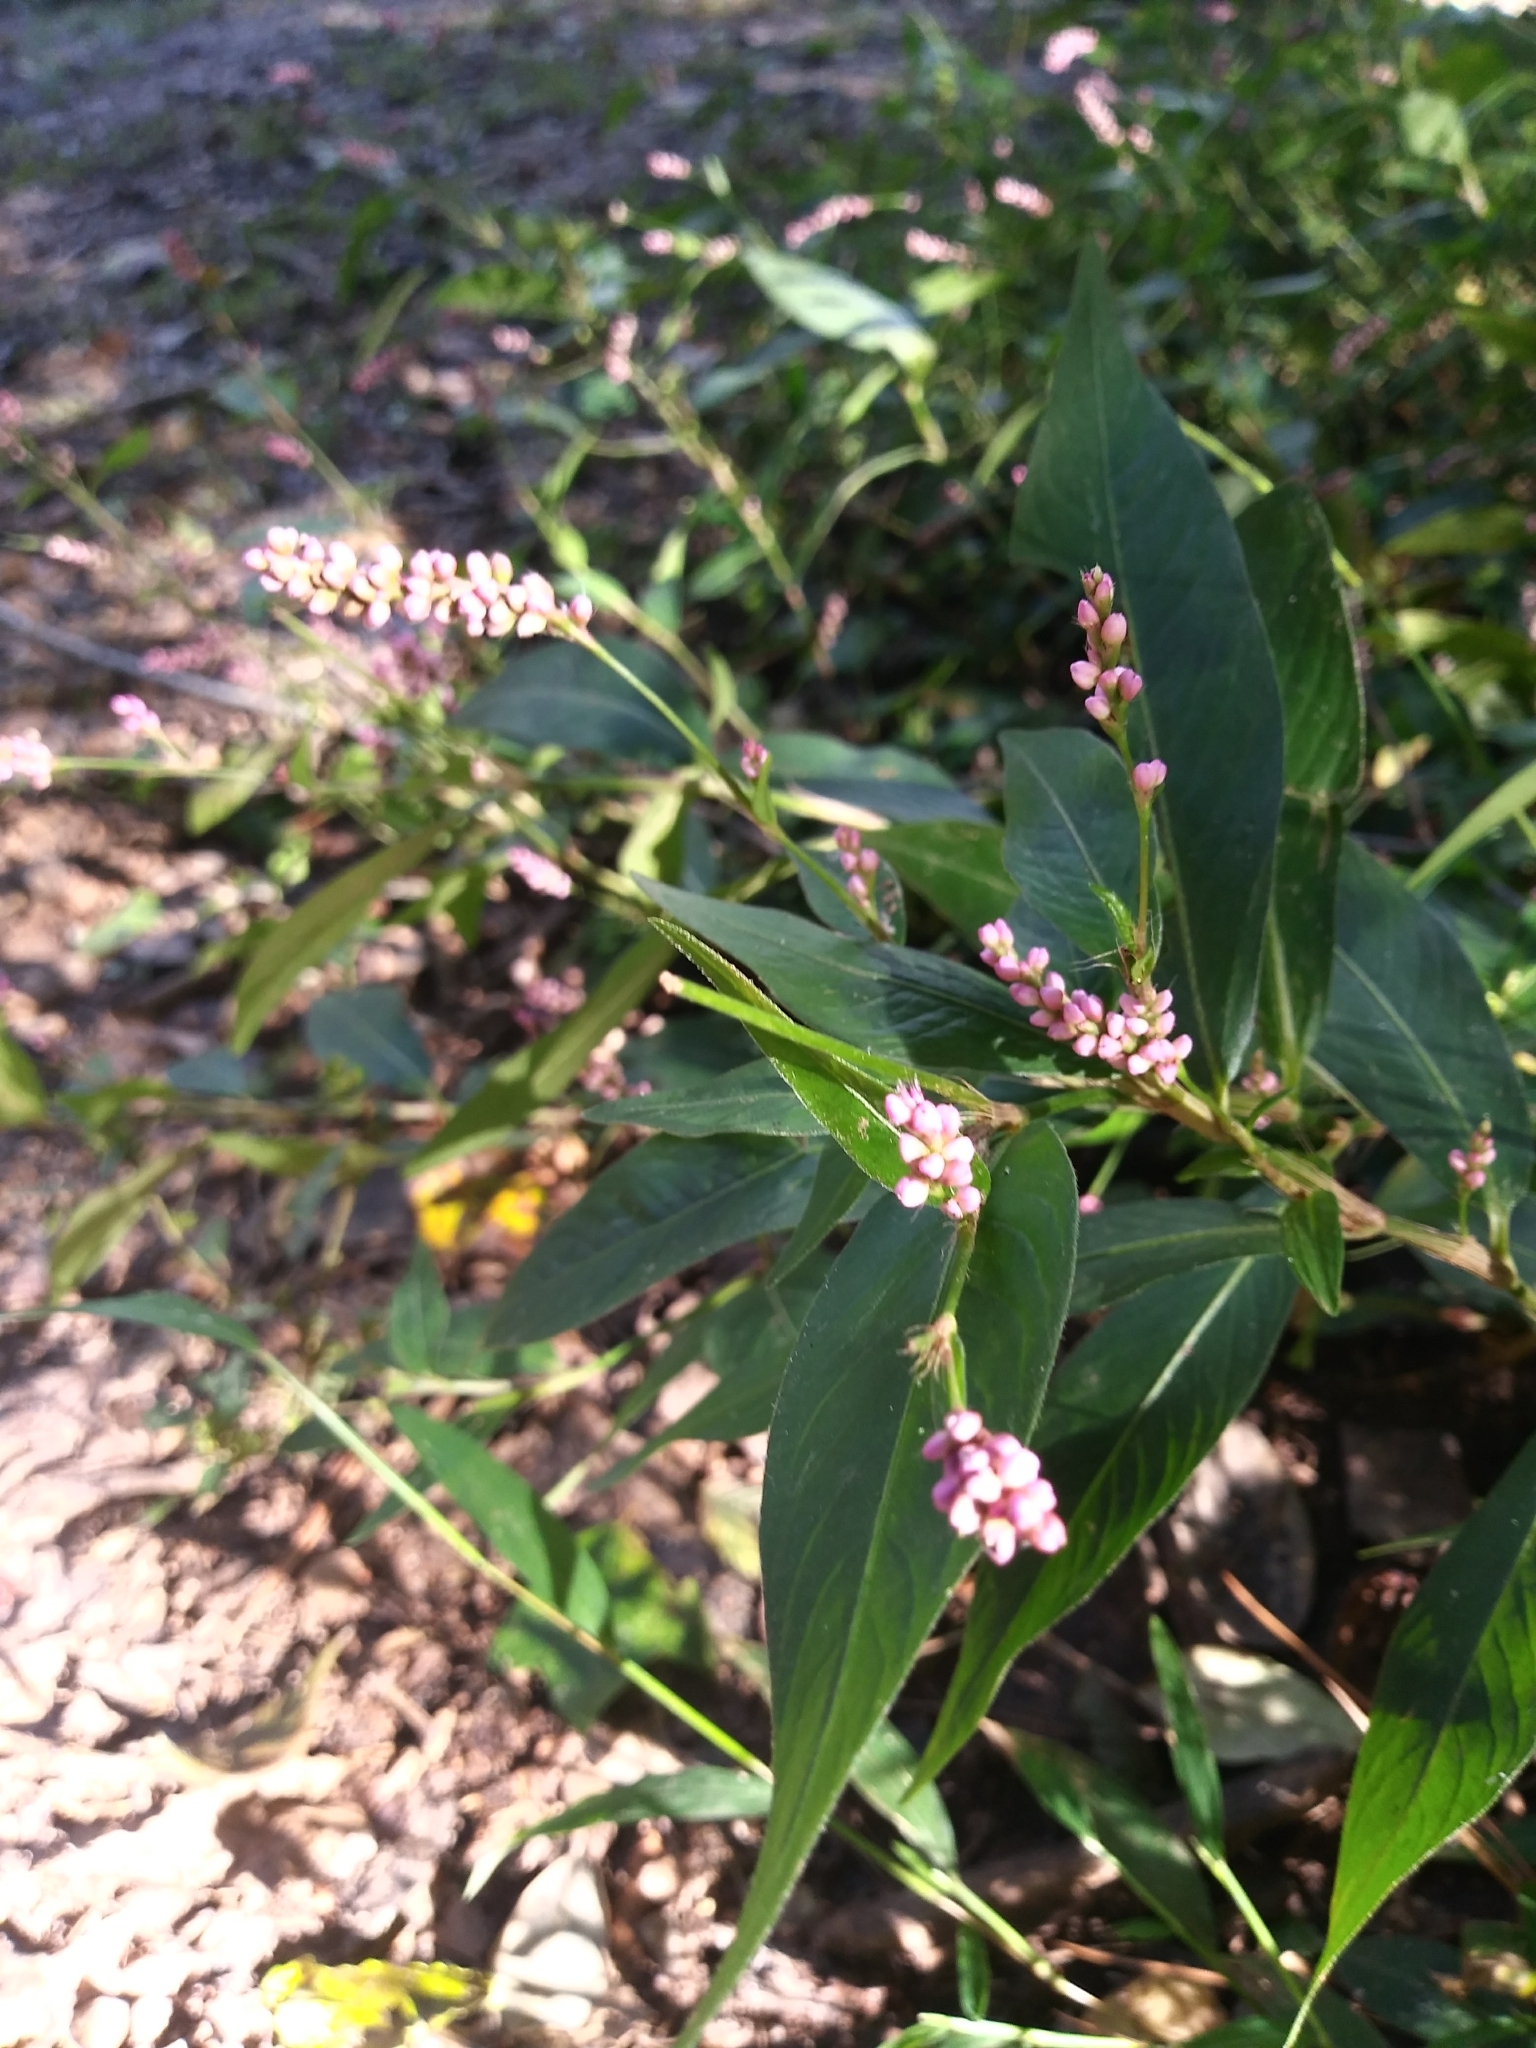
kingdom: Plantae
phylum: Tracheophyta
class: Magnoliopsida
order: Caryophyllales
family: Polygonaceae
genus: Persicaria
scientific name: Persicaria longiseta
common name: Bristly lady's-thumb
